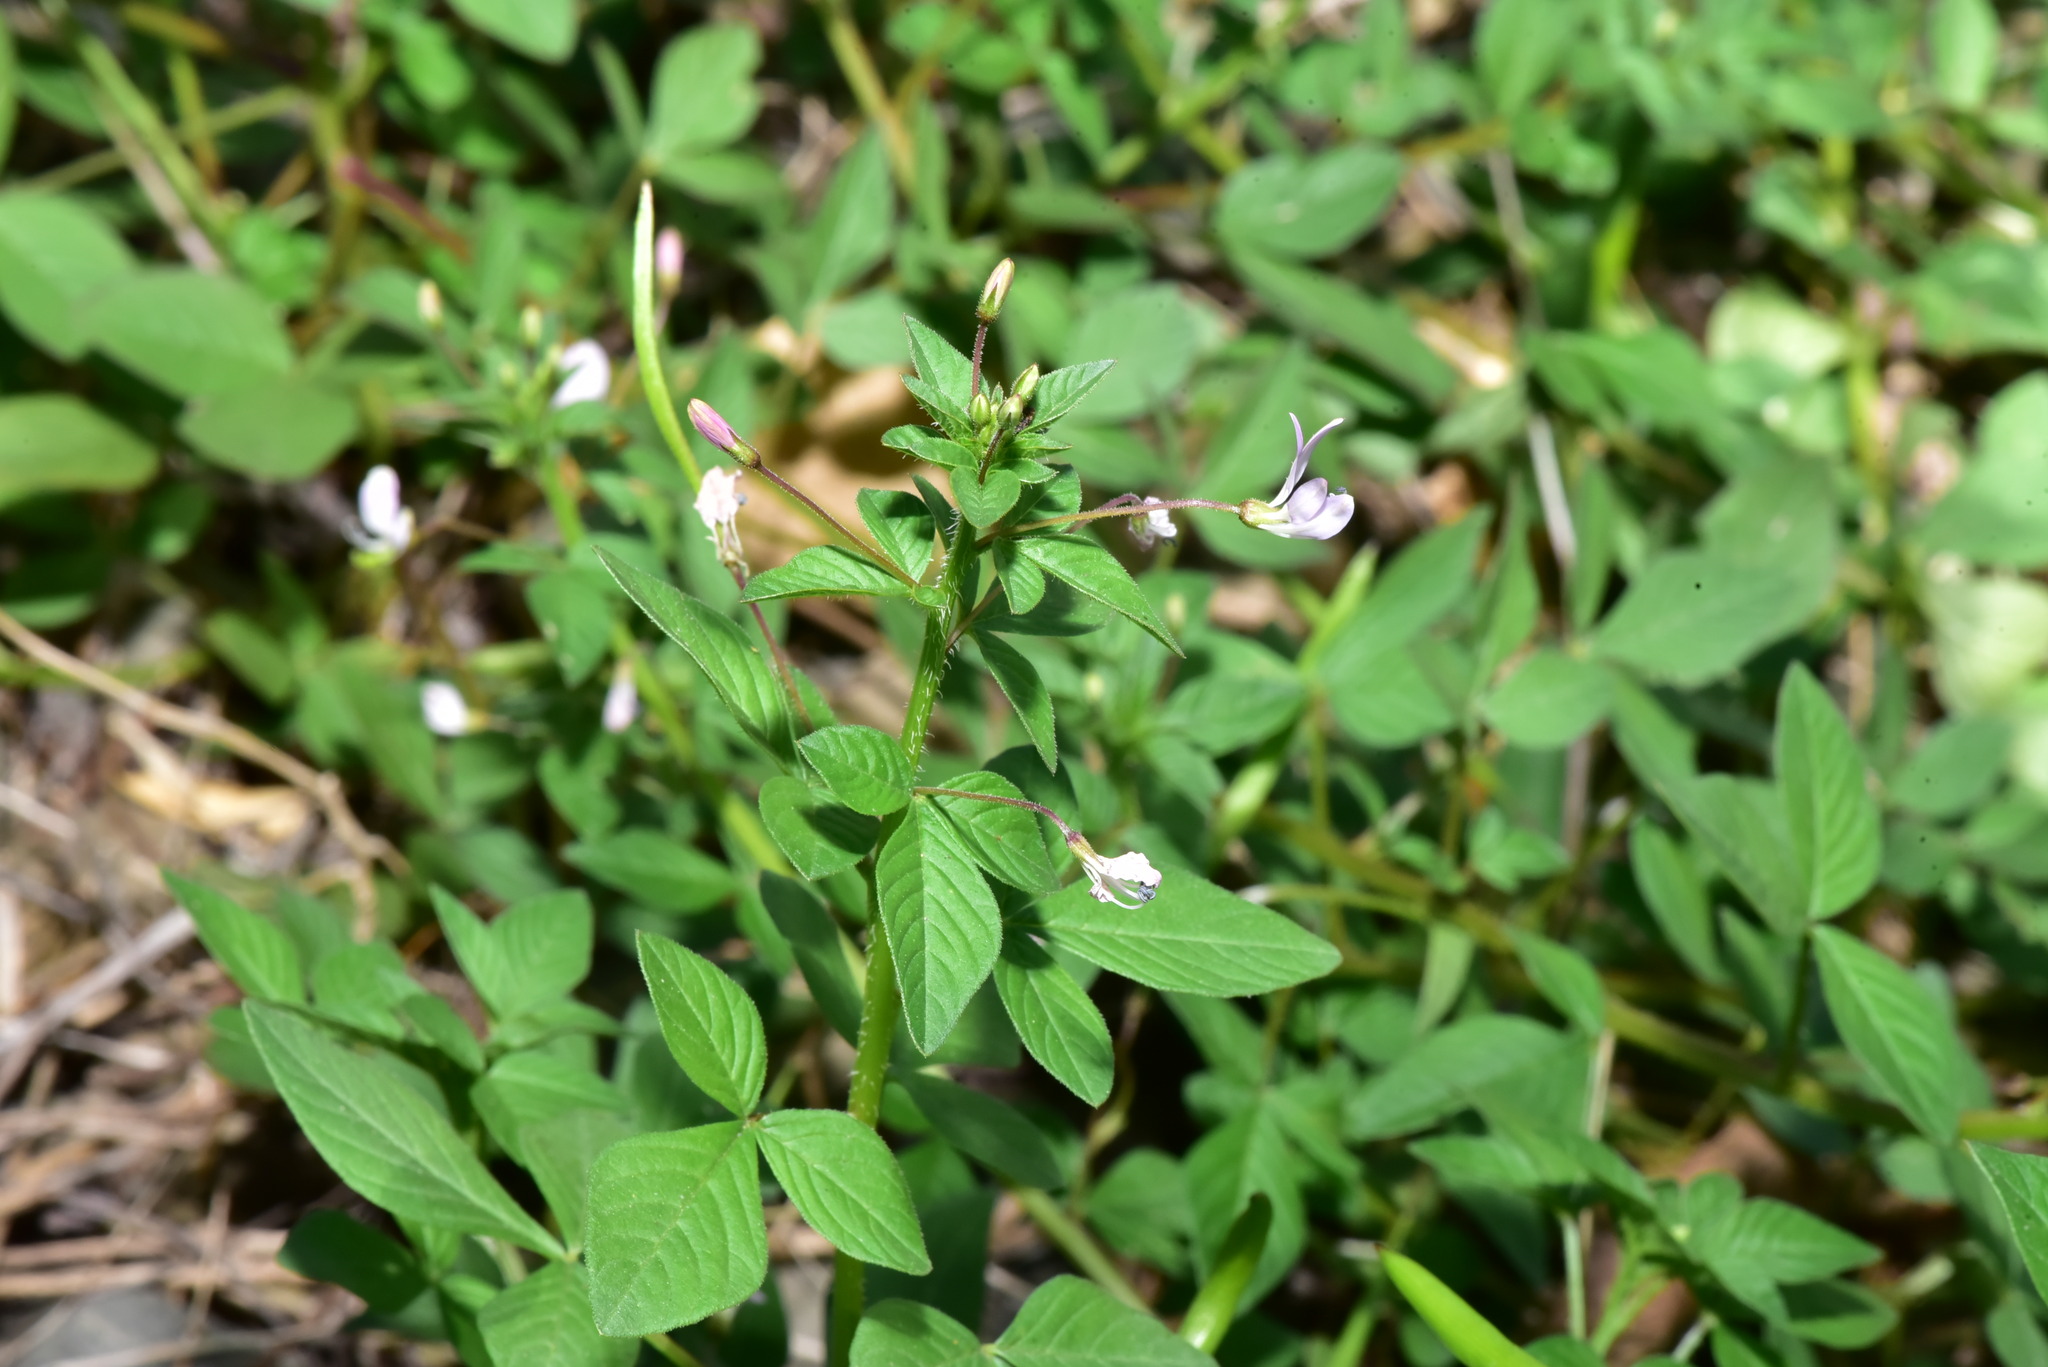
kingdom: Plantae
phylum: Tracheophyta
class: Magnoliopsida
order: Brassicales
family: Cleomaceae
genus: Sieruela
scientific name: Sieruela rutidosperma
